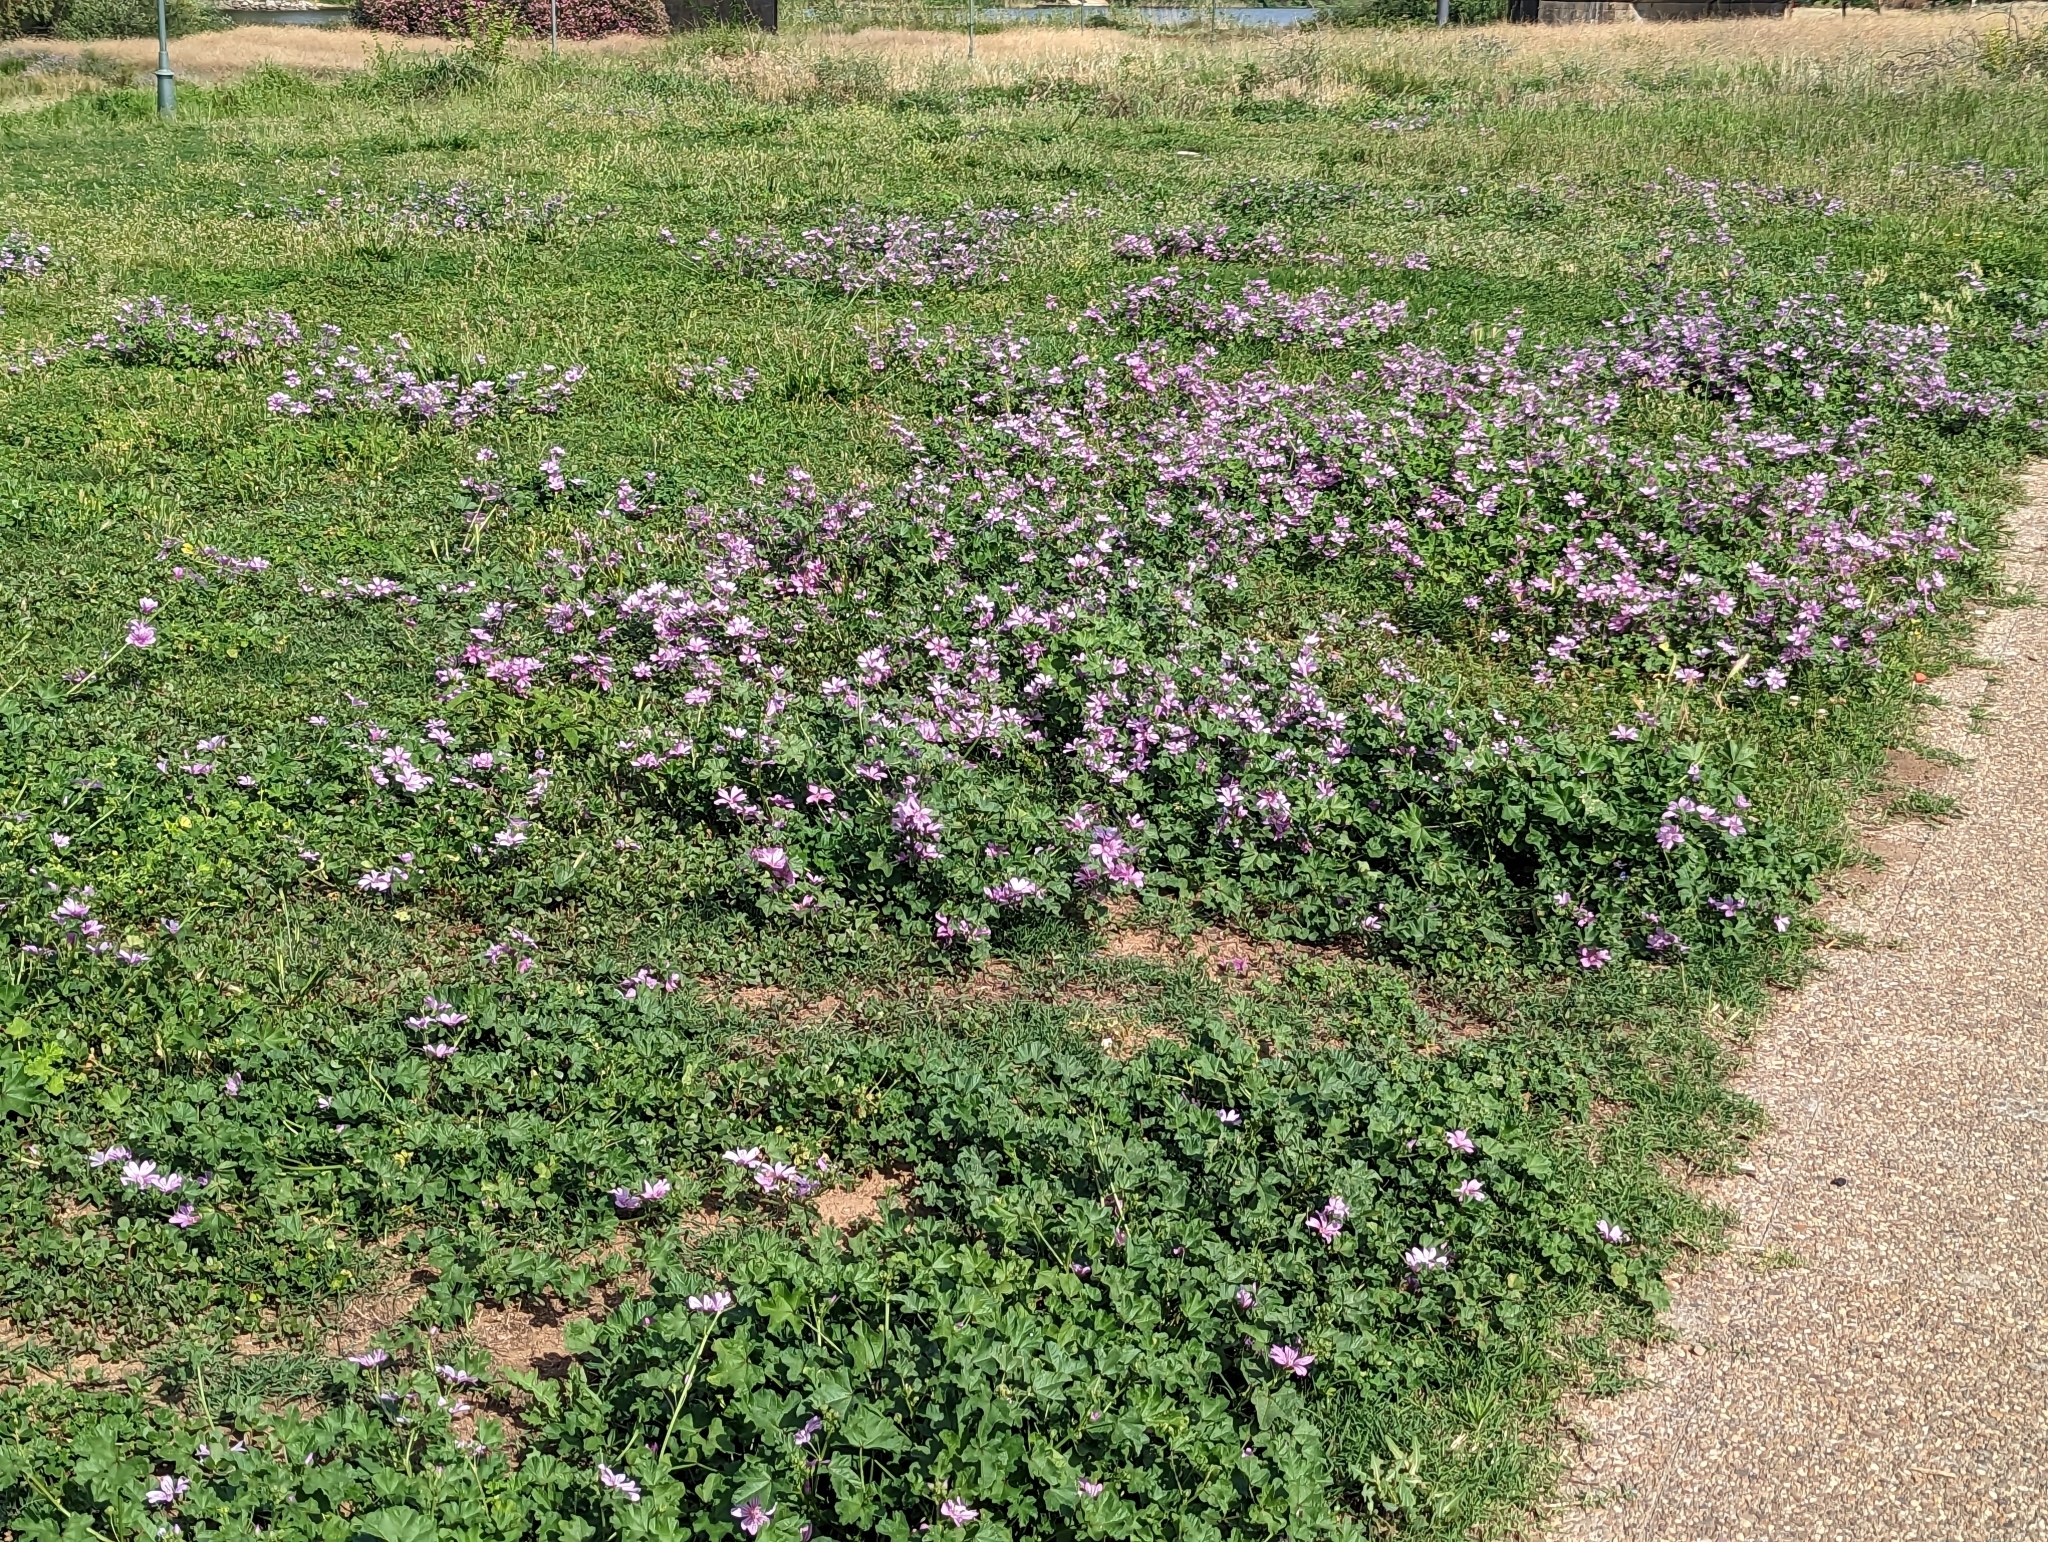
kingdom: Plantae
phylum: Tracheophyta
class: Magnoliopsida
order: Malvales
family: Malvaceae
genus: Malva
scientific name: Malva sylvestris
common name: Common mallow
